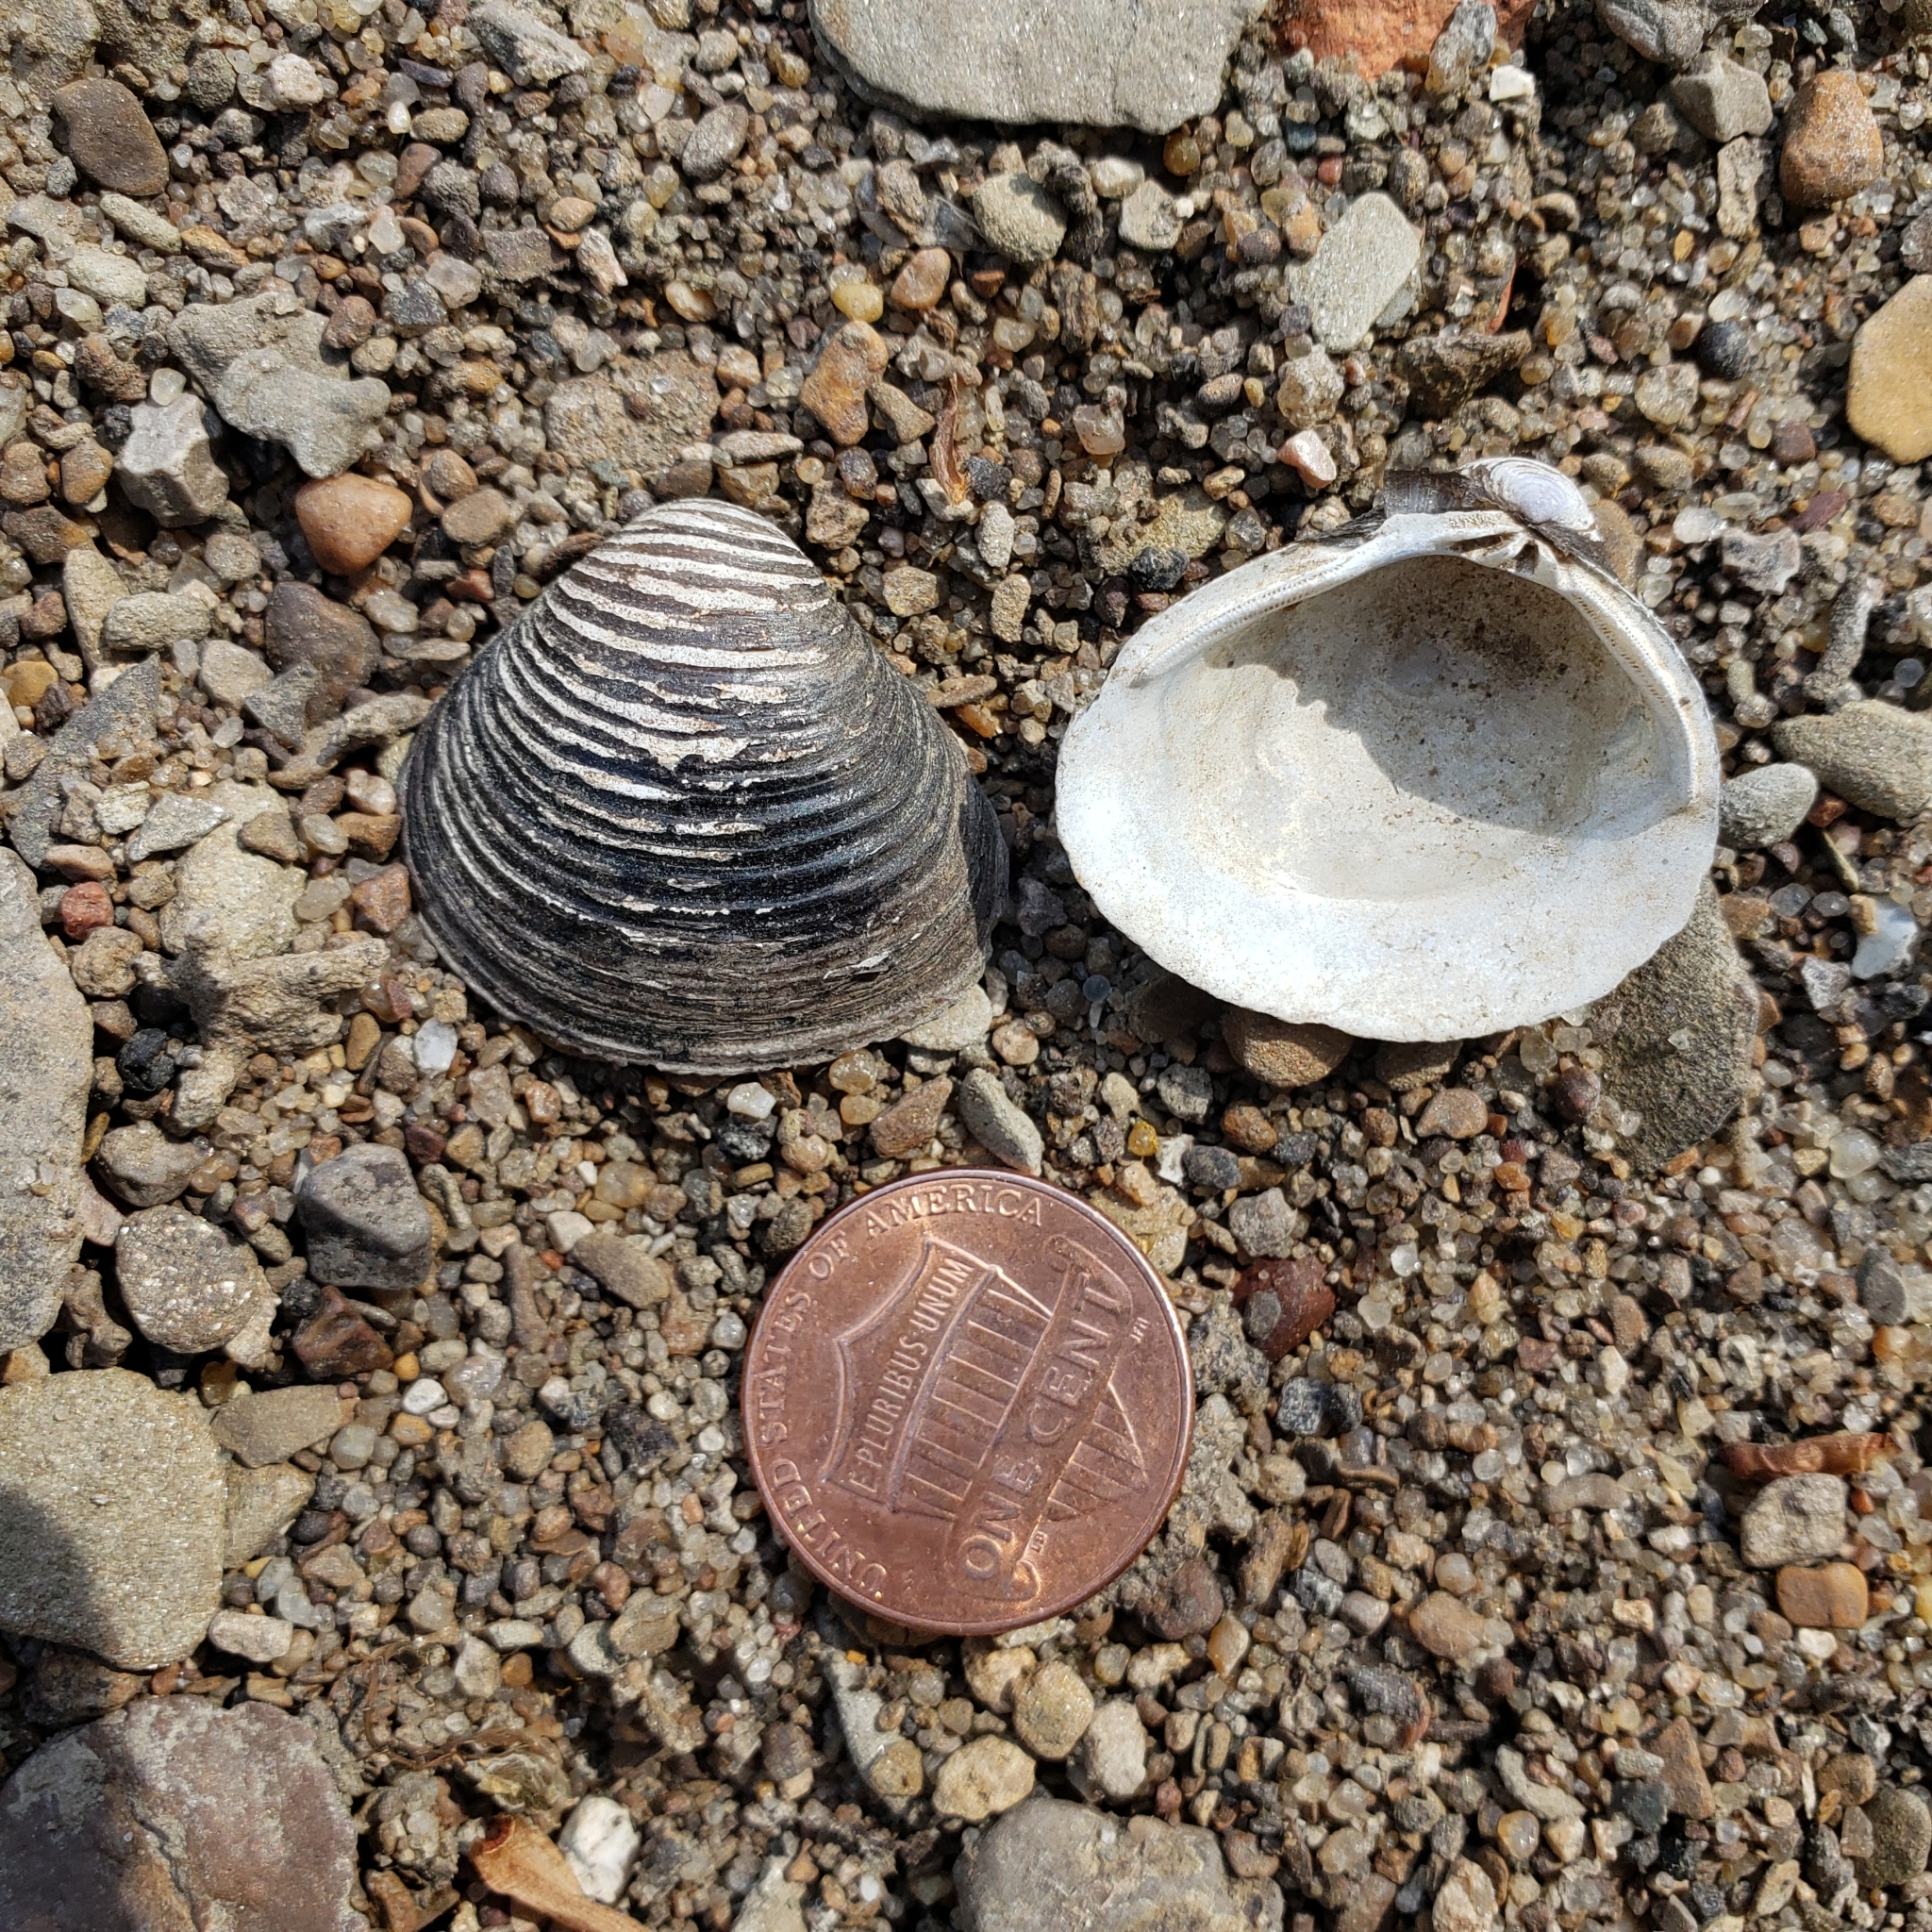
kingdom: Animalia
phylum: Mollusca
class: Bivalvia
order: Venerida
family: Cyrenidae
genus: Corbicula
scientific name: Corbicula fluminea
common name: Asian clam
